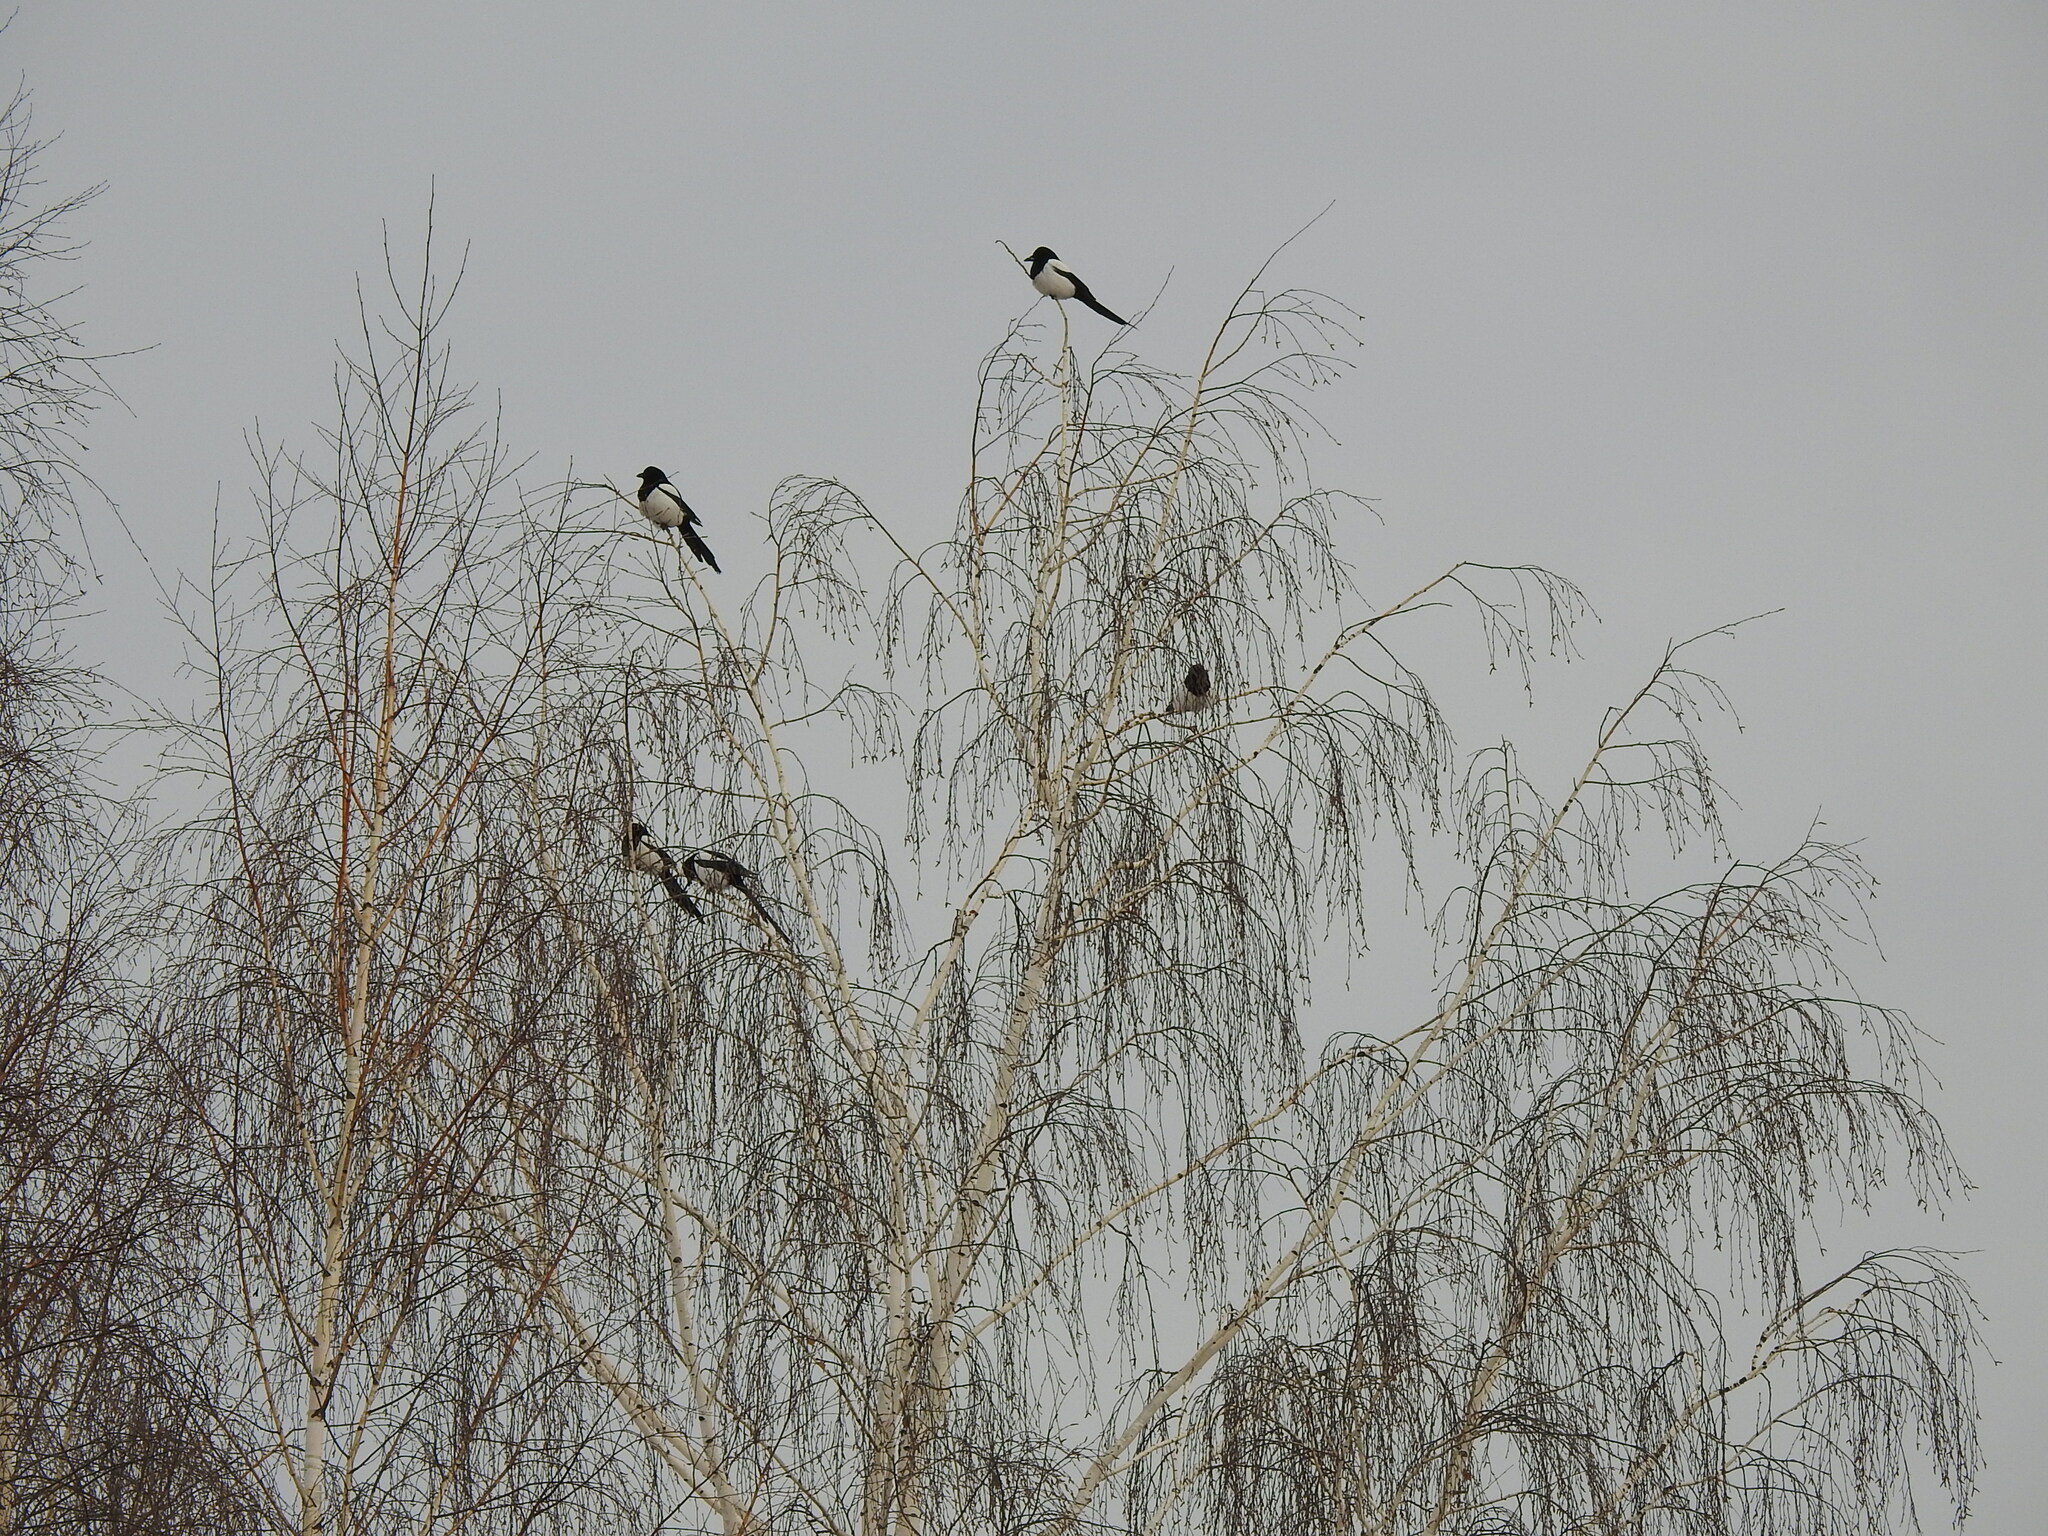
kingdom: Animalia
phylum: Chordata
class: Aves
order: Passeriformes
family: Corvidae
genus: Pica
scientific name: Pica pica
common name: Eurasian magpie
